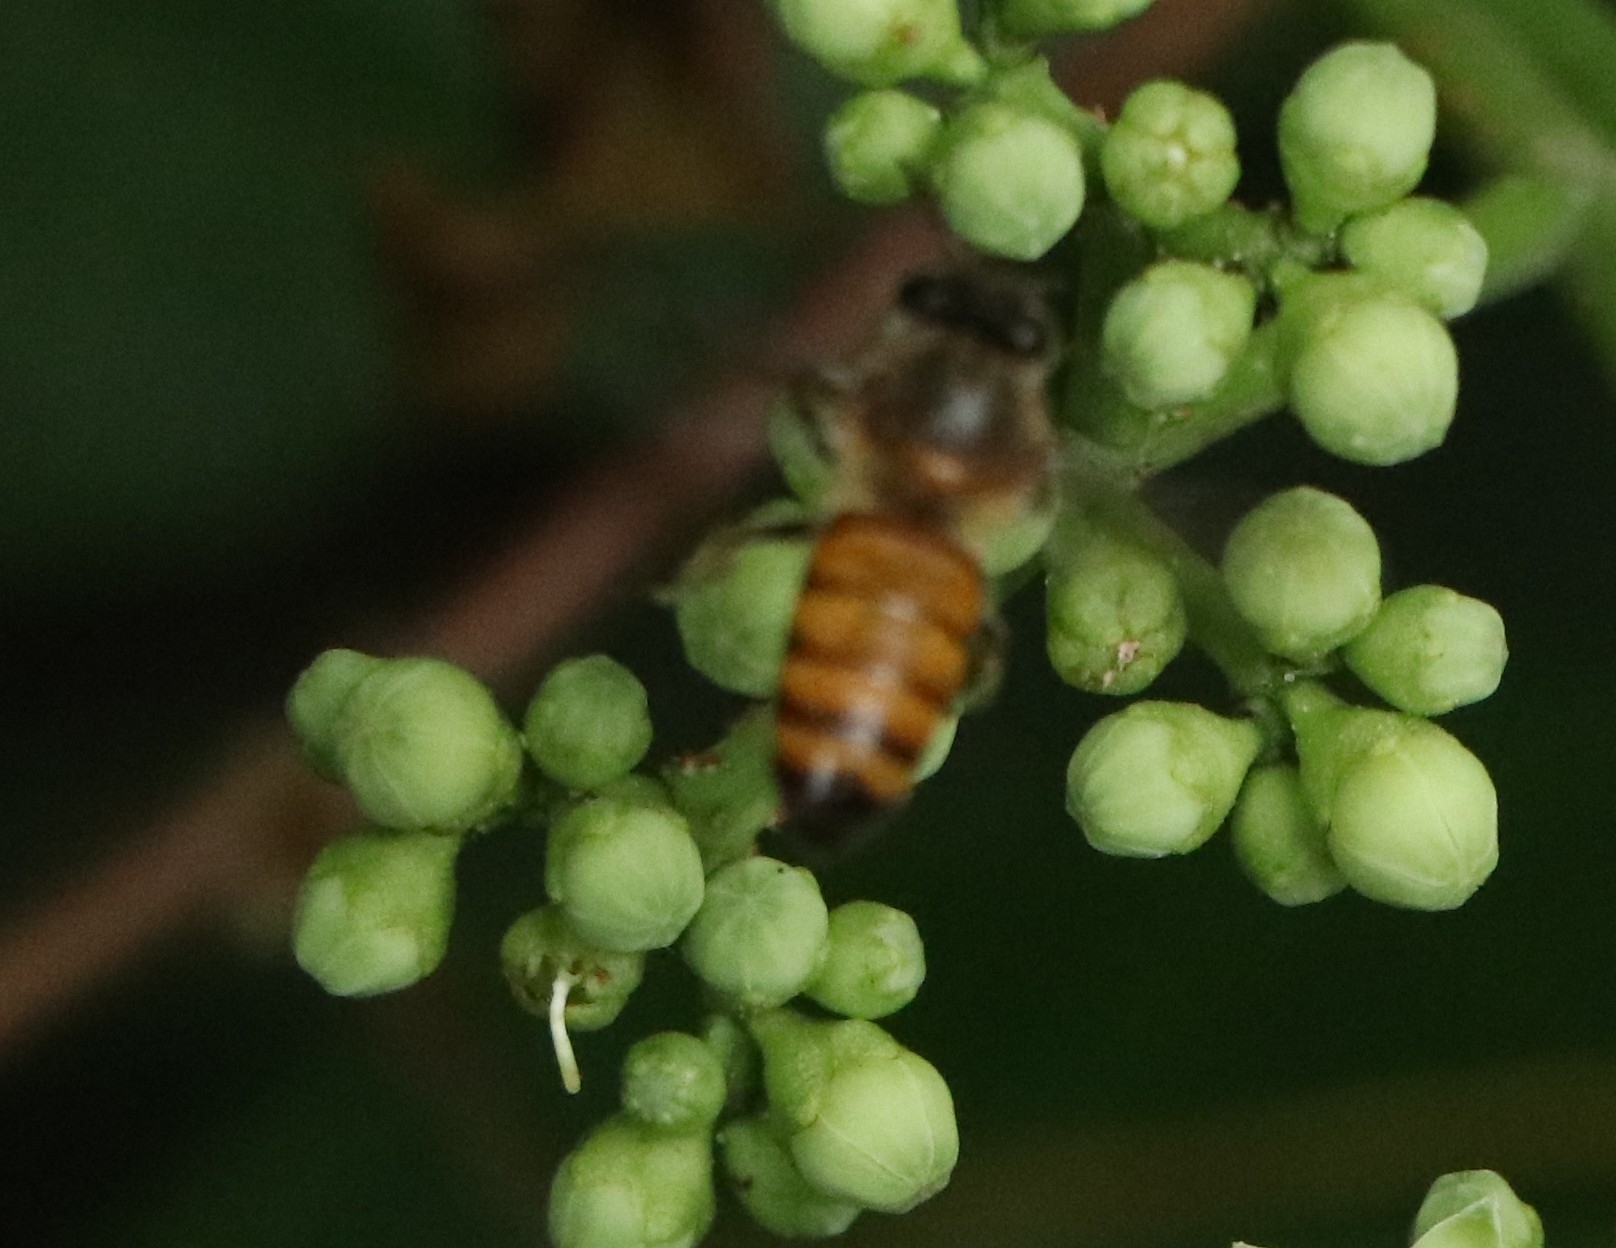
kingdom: Animalia
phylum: Arthropoda
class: Insecta
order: Hymenoptera
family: Apidae
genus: Apis
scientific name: Apis cerana
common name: Honey bee
